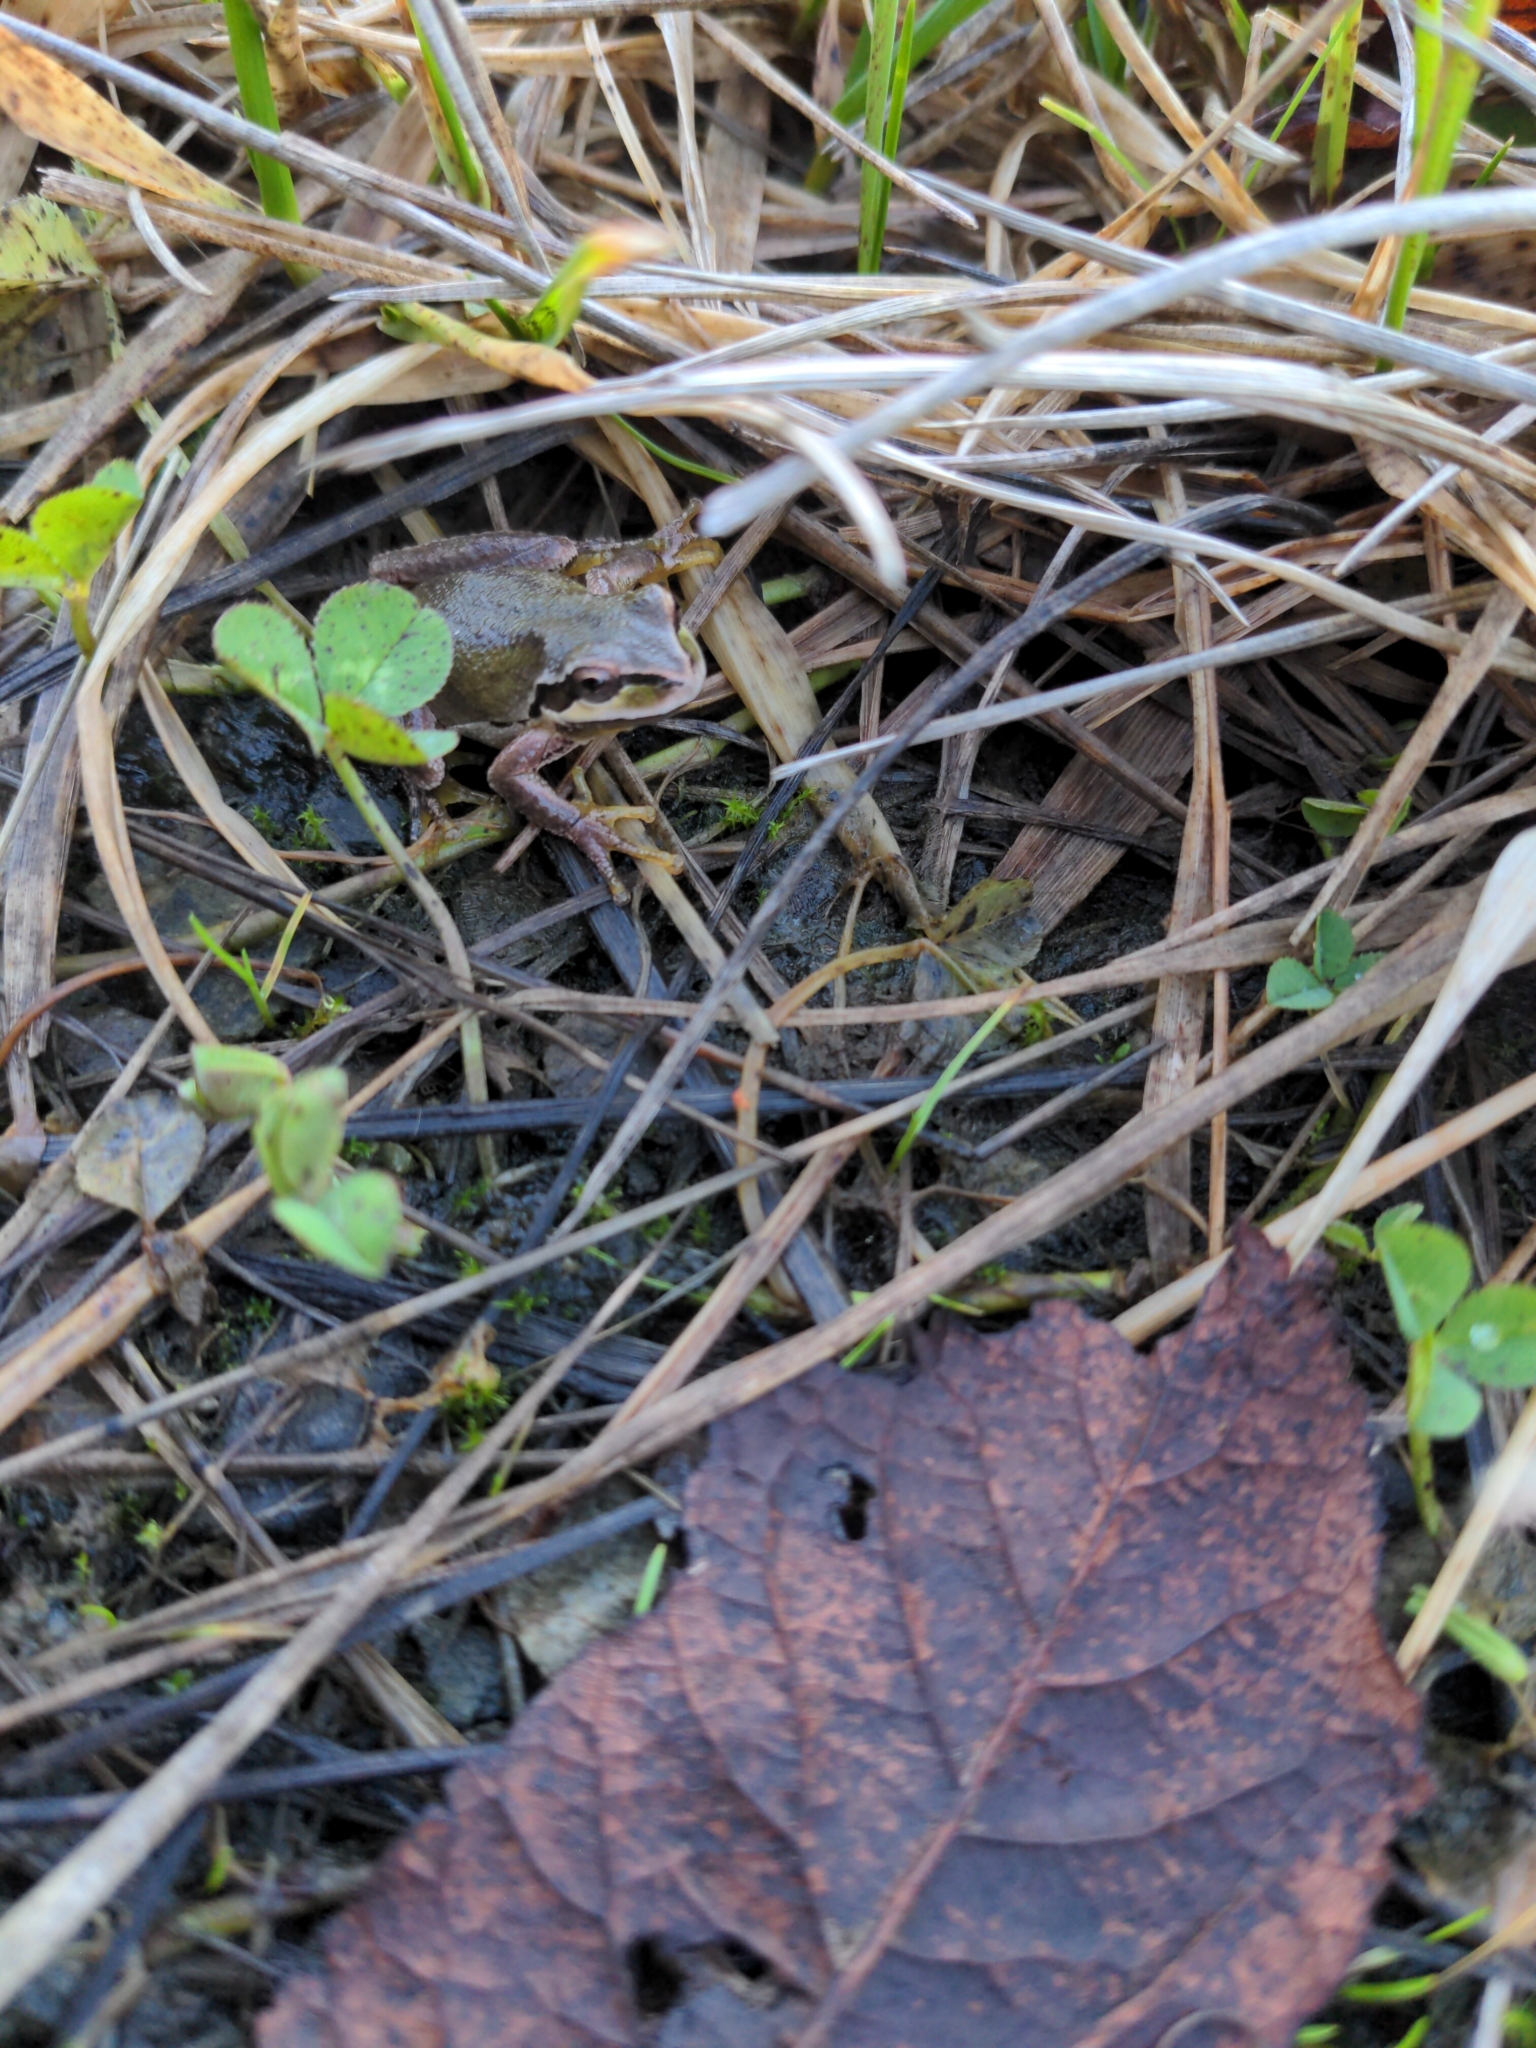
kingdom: Animalia
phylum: Chordata
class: Amphibia
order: Anura
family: Hylidae
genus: Pseudacris
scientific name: Pseudacris regilla
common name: Pacific chorus frog
